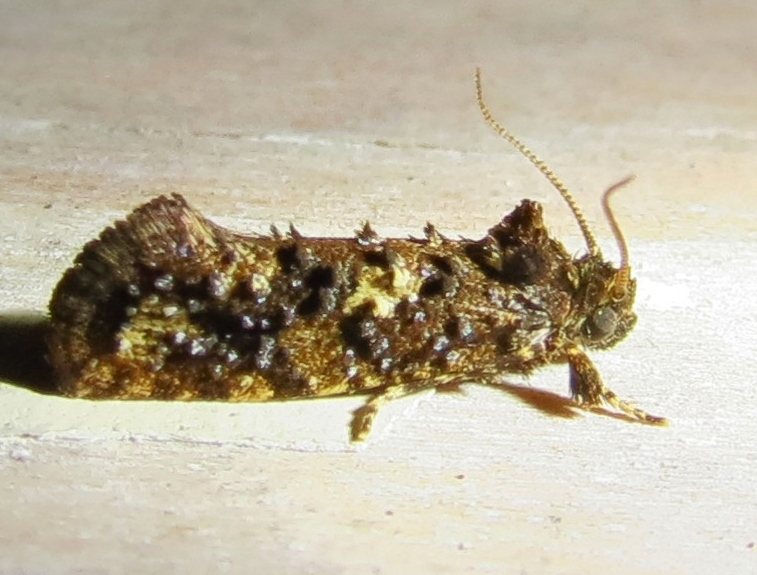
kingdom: Animalia
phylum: Arthropoda
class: Insecta
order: Lepidoptera
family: Tineidae
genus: Acrolophus
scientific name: Acrolophus cressoni
